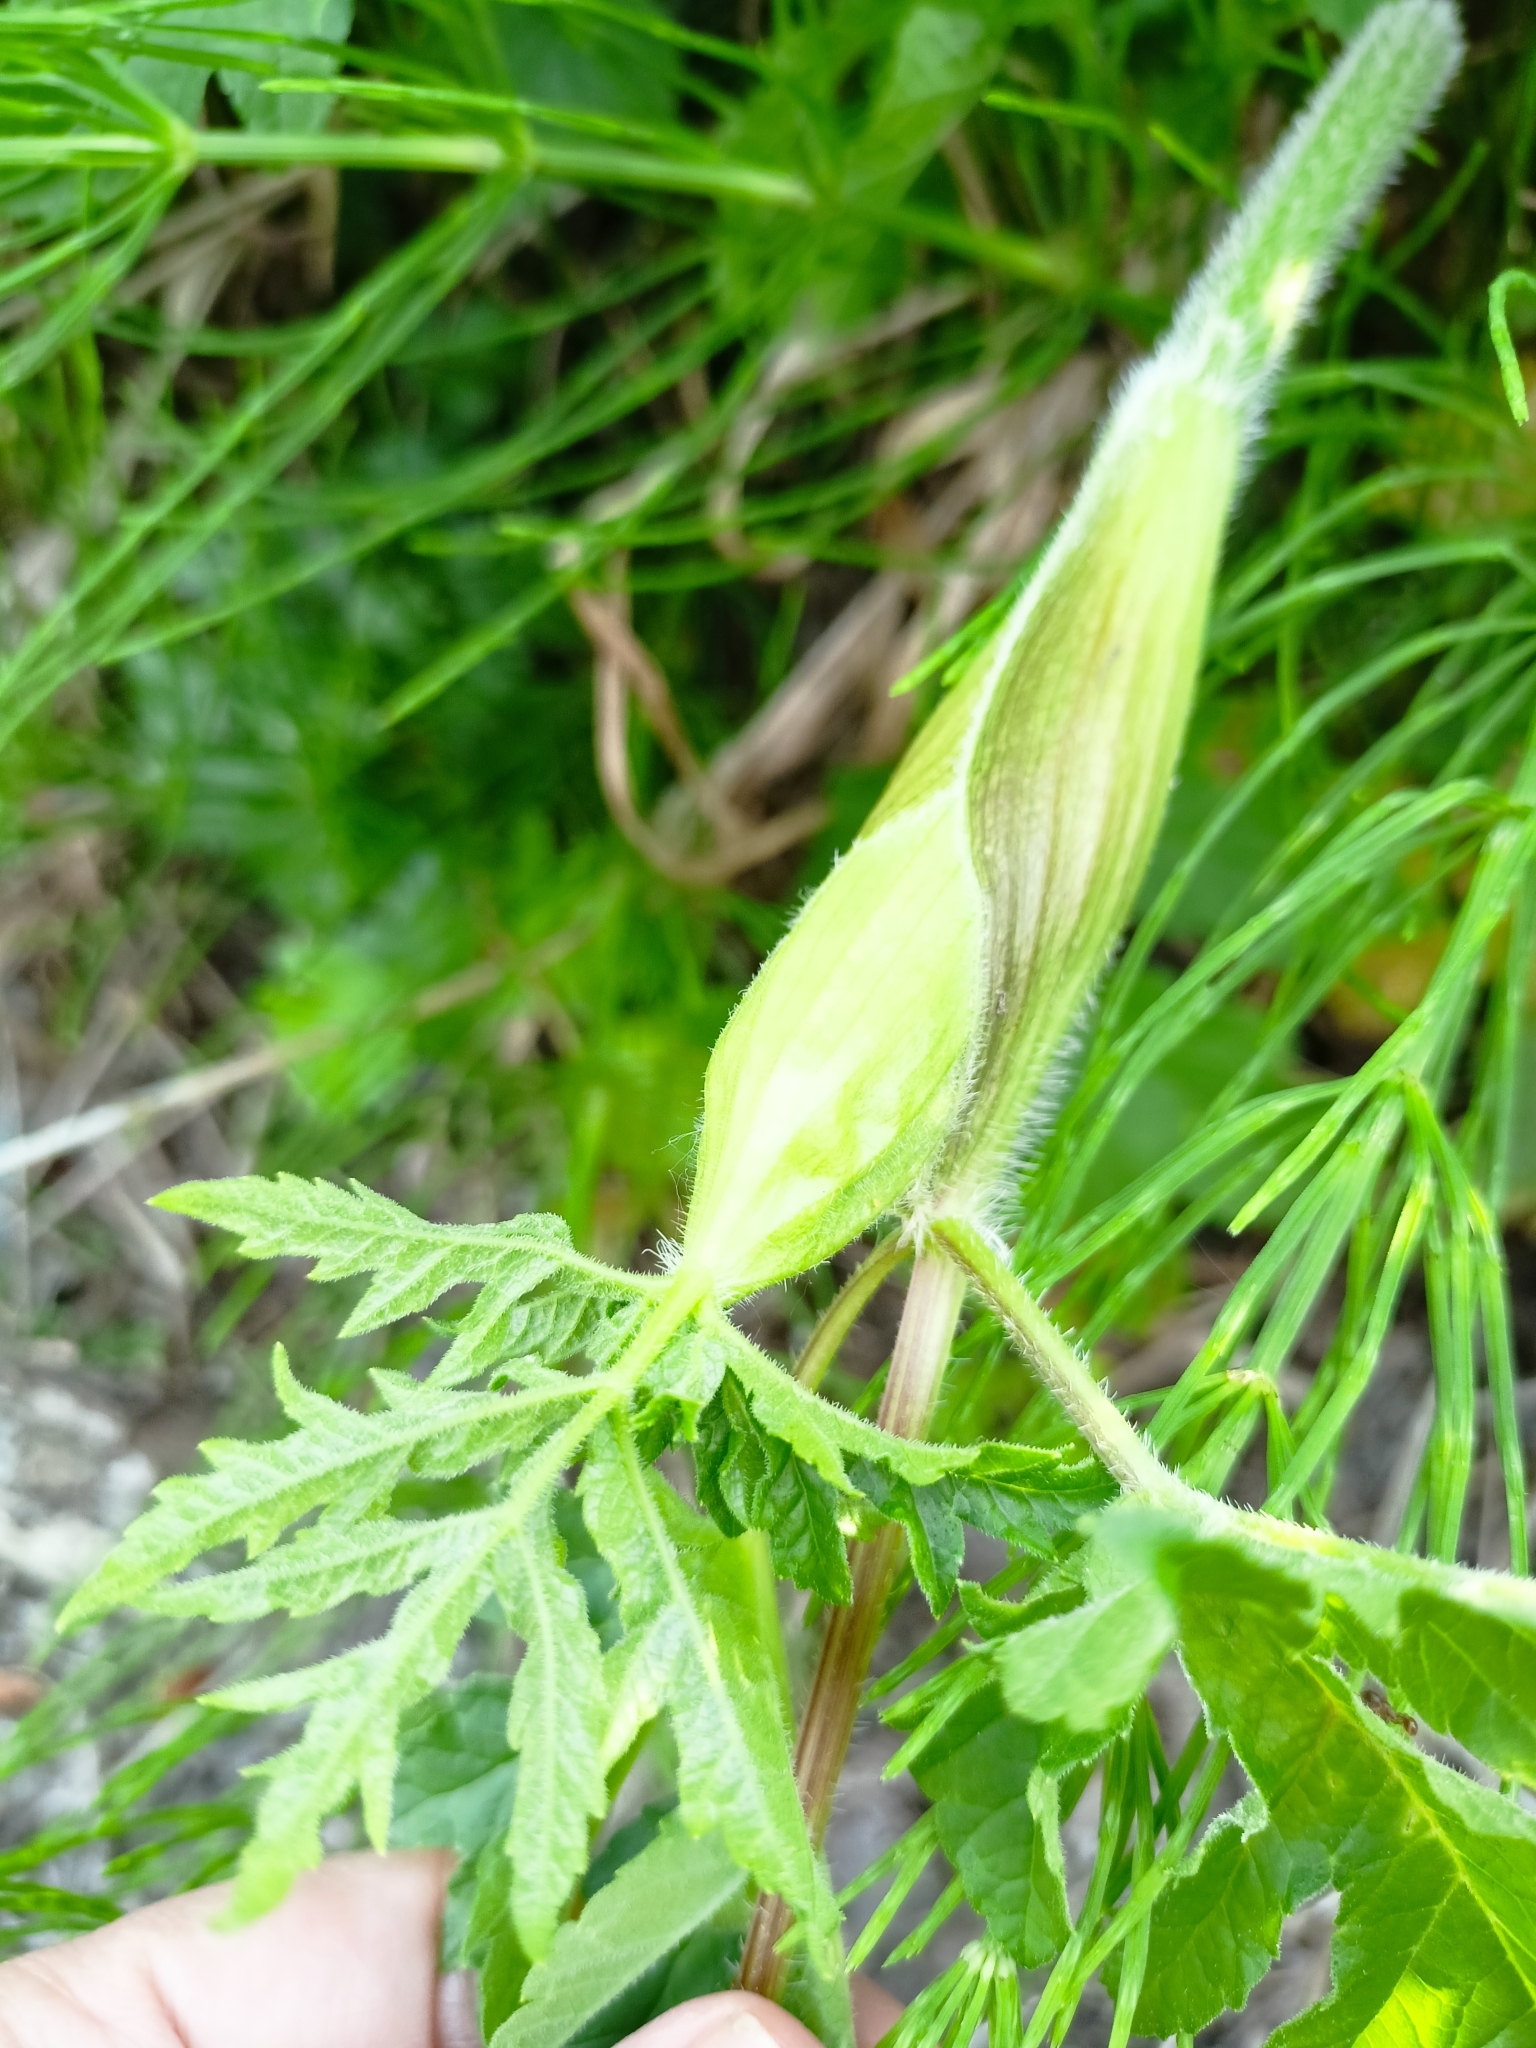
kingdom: Plantae
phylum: Tracheophyta
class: Magnoliopsida
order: Apiales
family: Apiaceae
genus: Heracleum
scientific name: Heracleum sphondylium
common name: Hogweed
